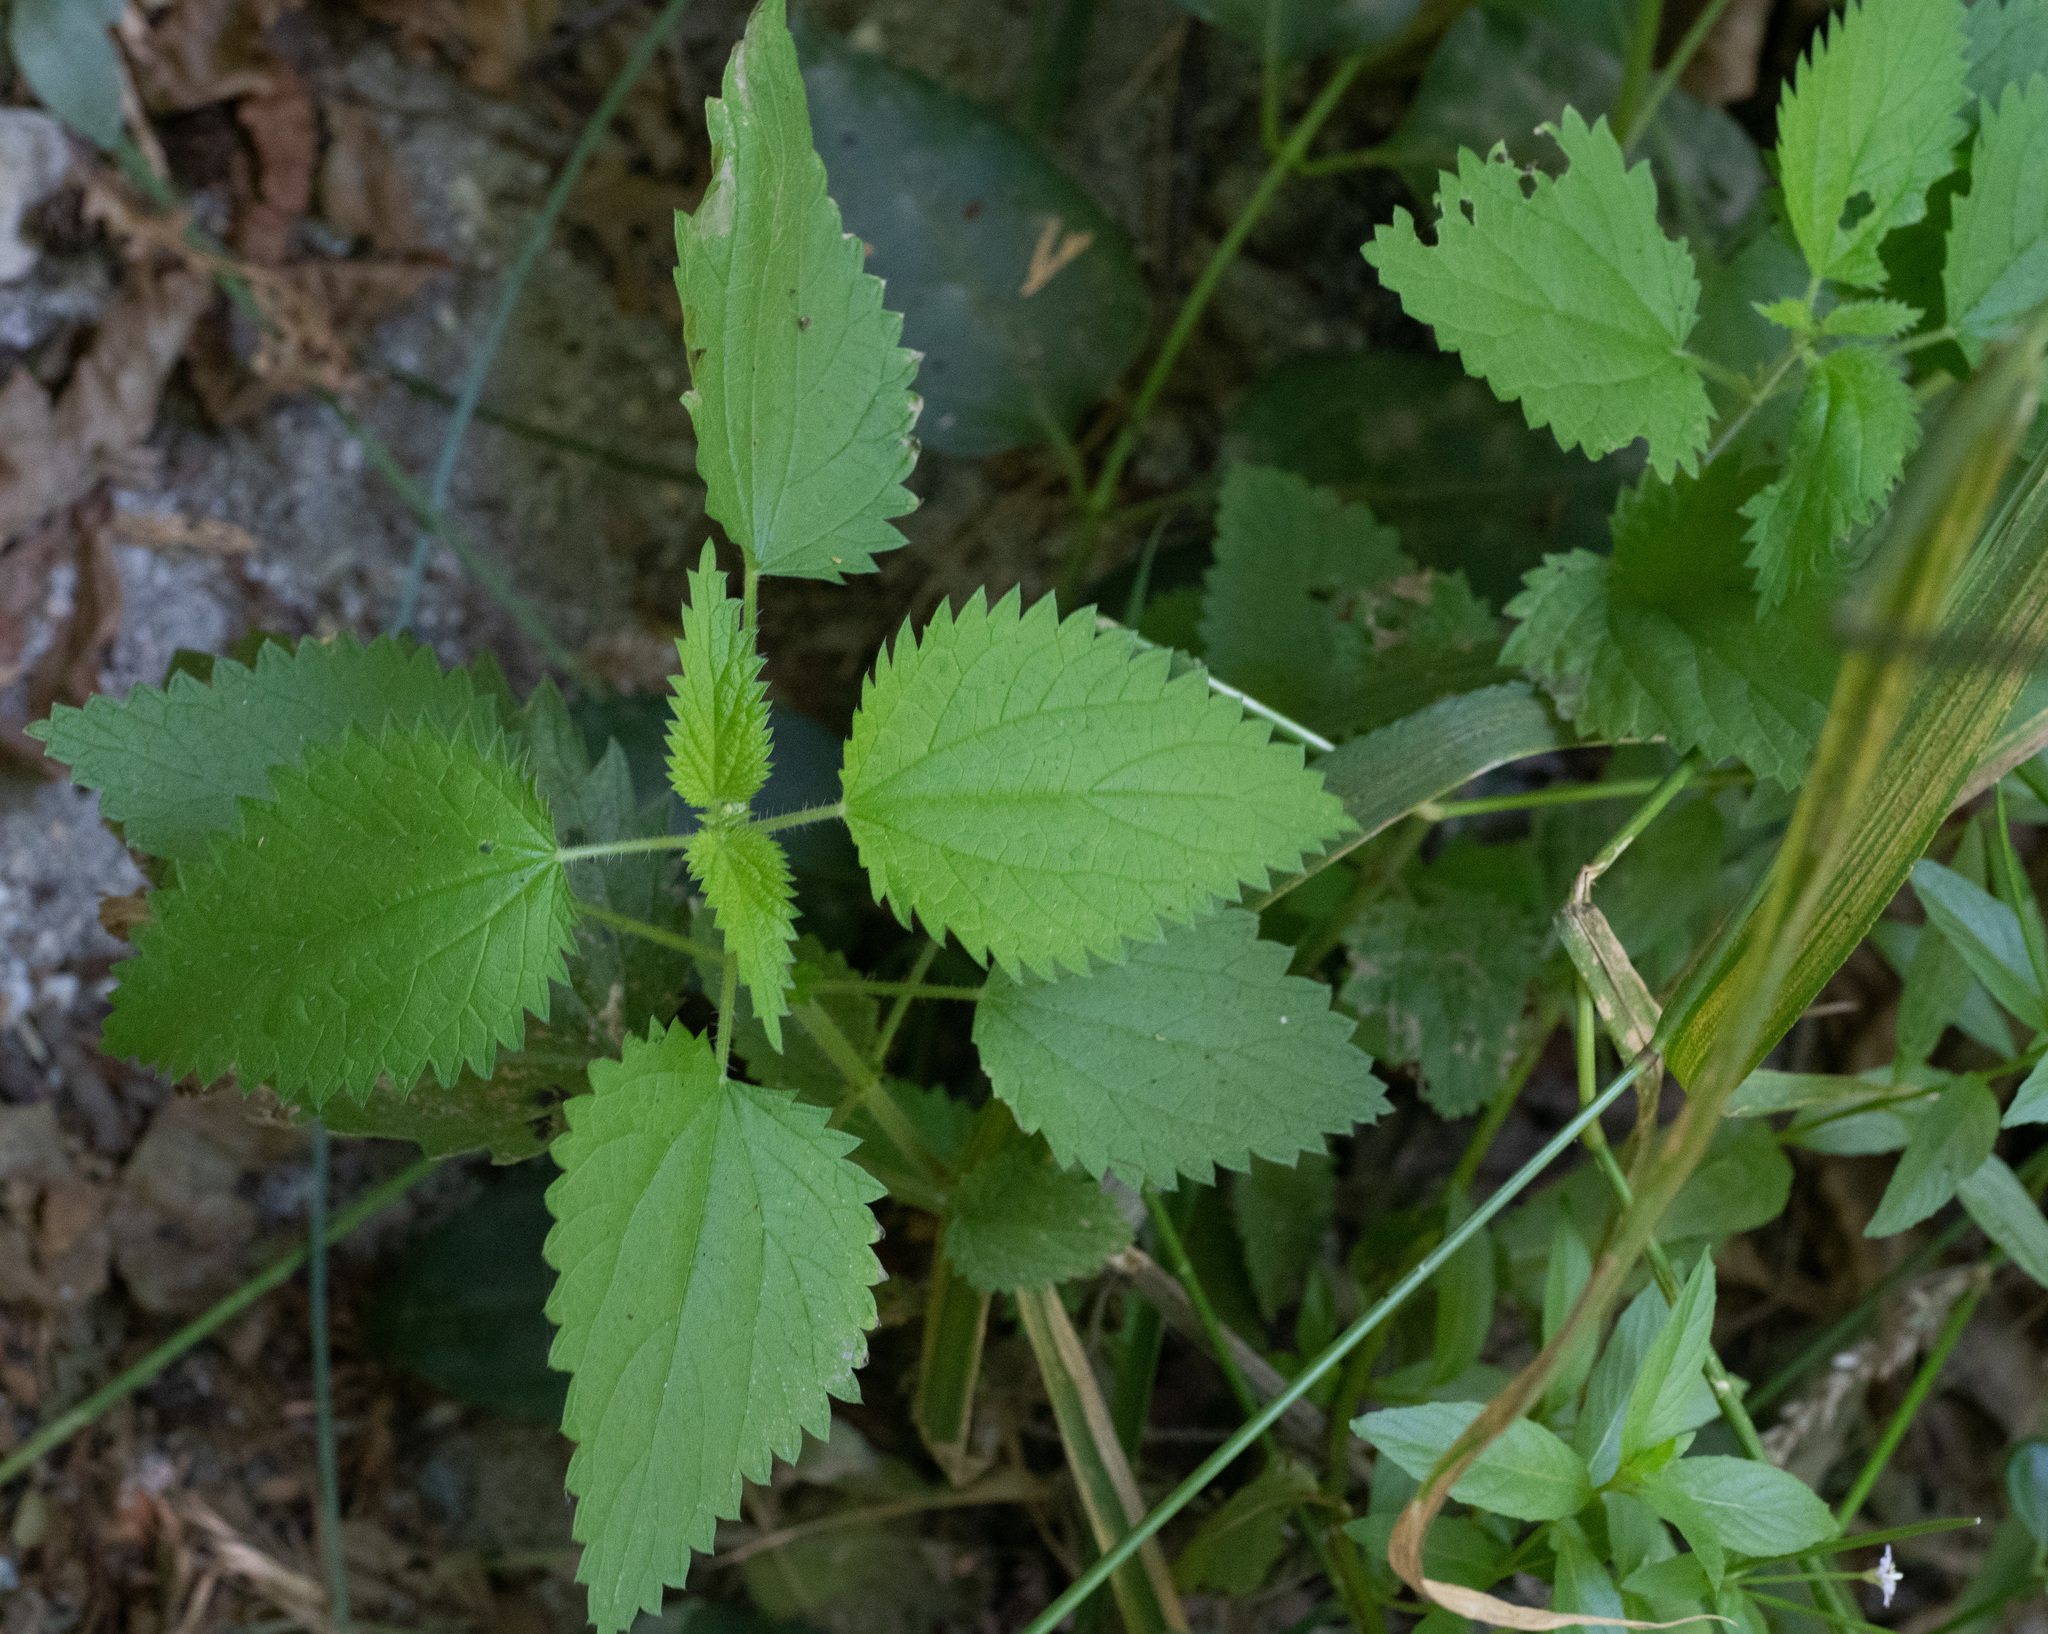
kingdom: Plantae
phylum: Tracheophyta
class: Magnoliopsida
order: Rosales
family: Urticaceae
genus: Urtica
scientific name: Urtica dioica
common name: Common nettle
